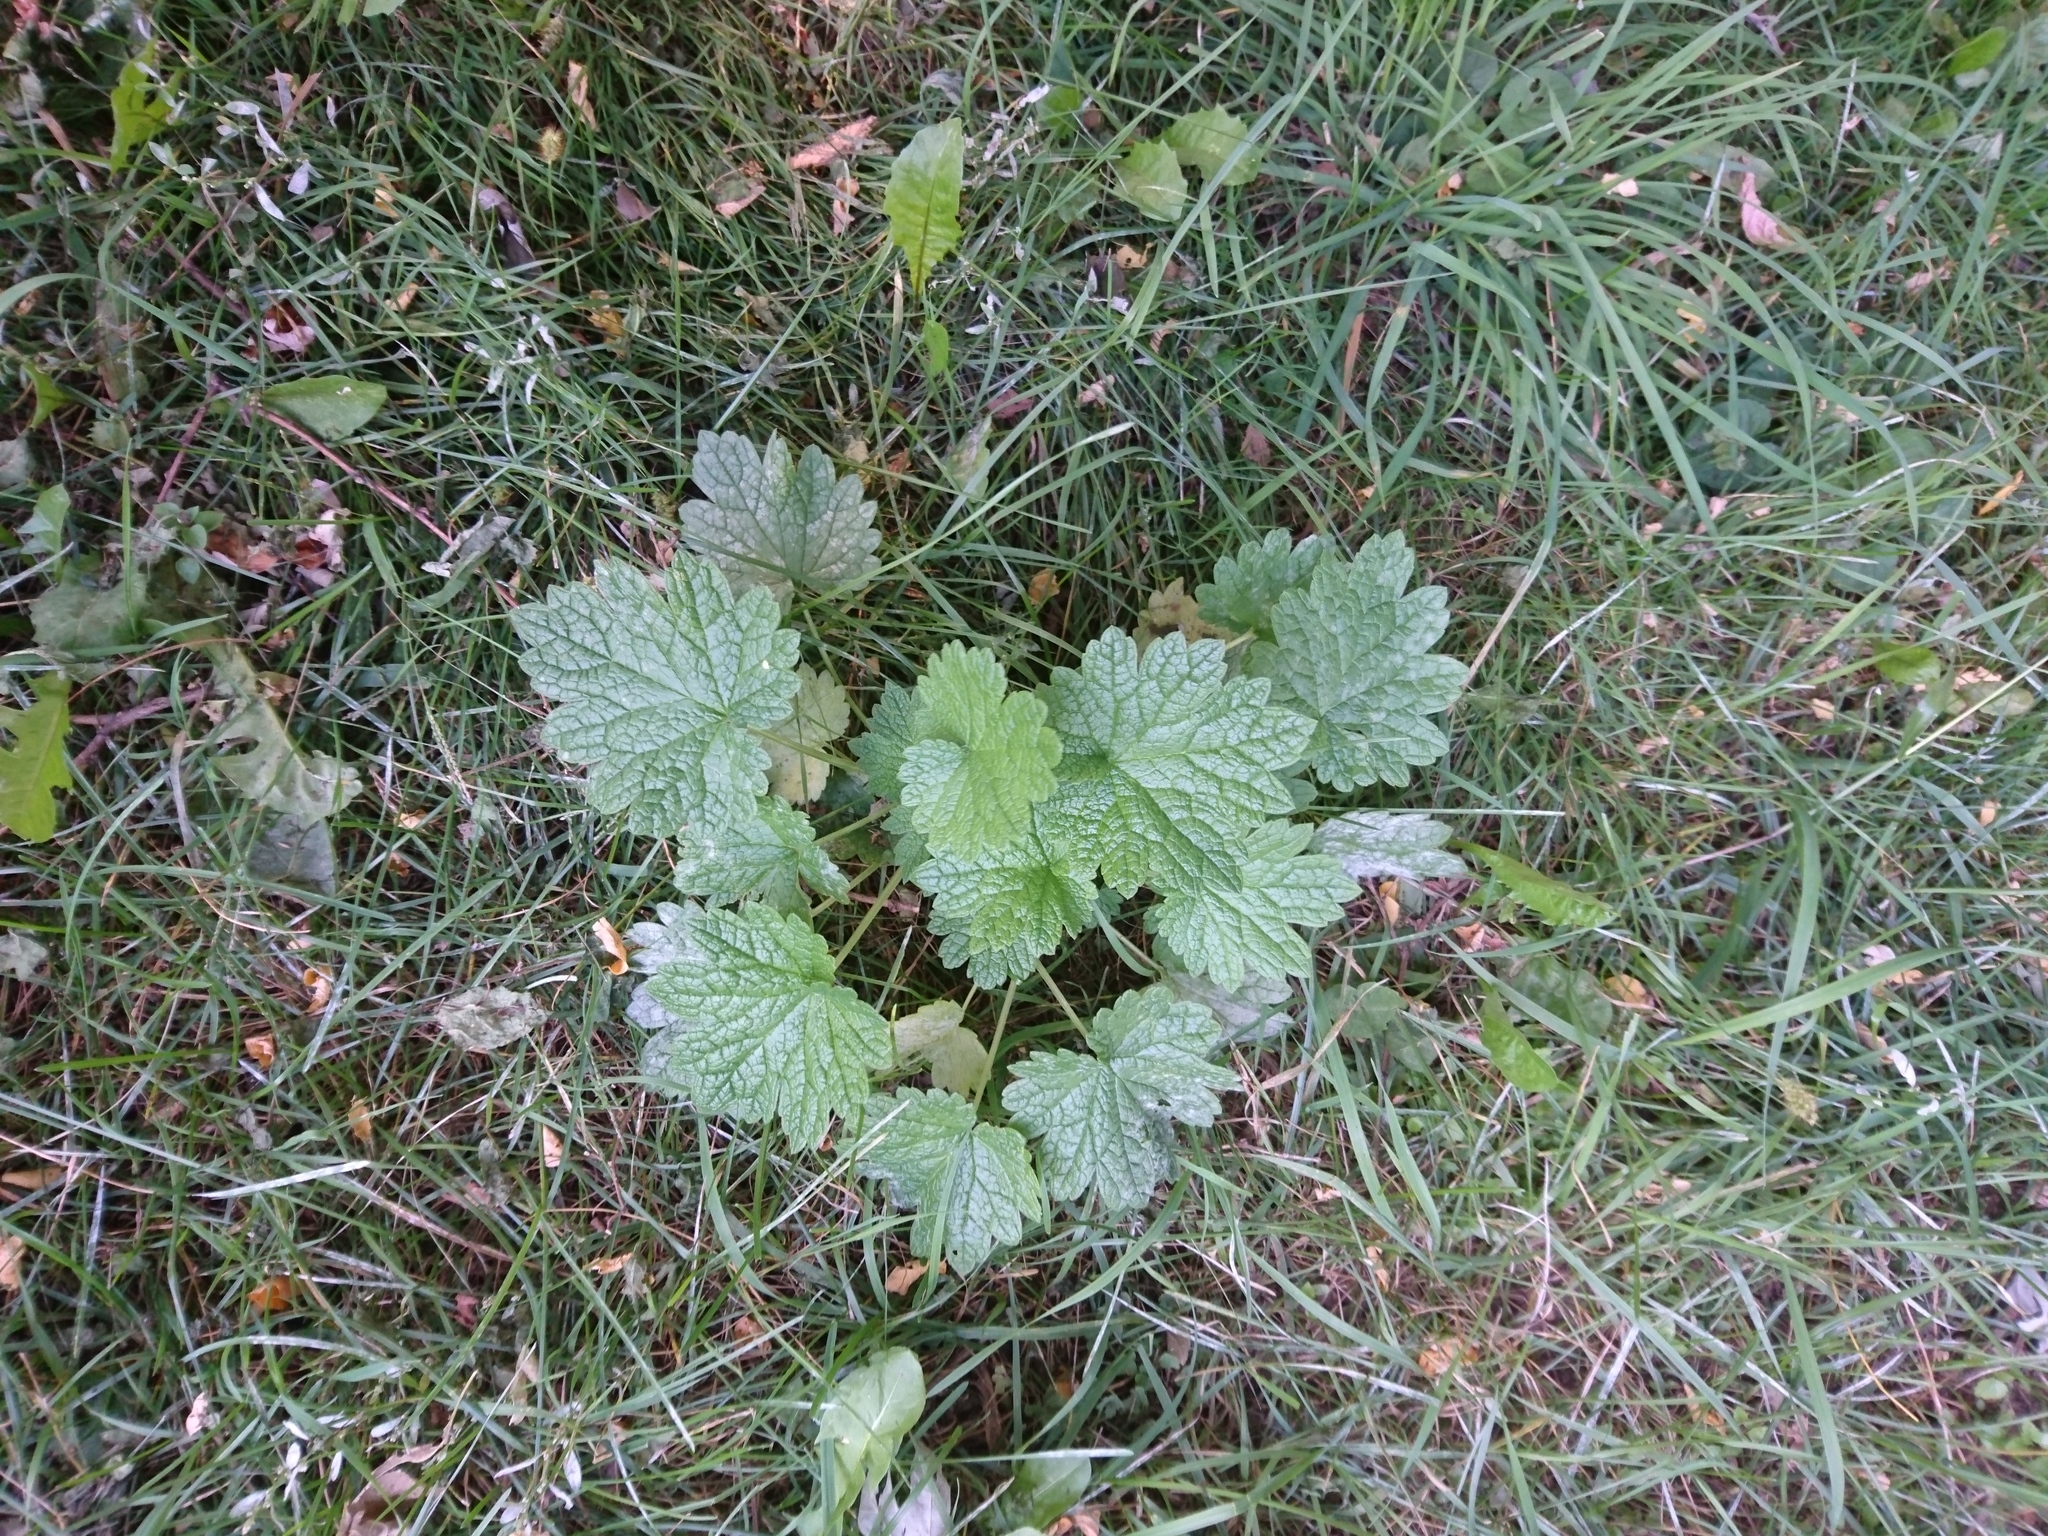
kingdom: Plantae
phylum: Tracheophyta
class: Magnoliopsida
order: Lamiales
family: Lamiaceae
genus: Leonurus
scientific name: Leonurus cardiaca
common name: Motherwort
